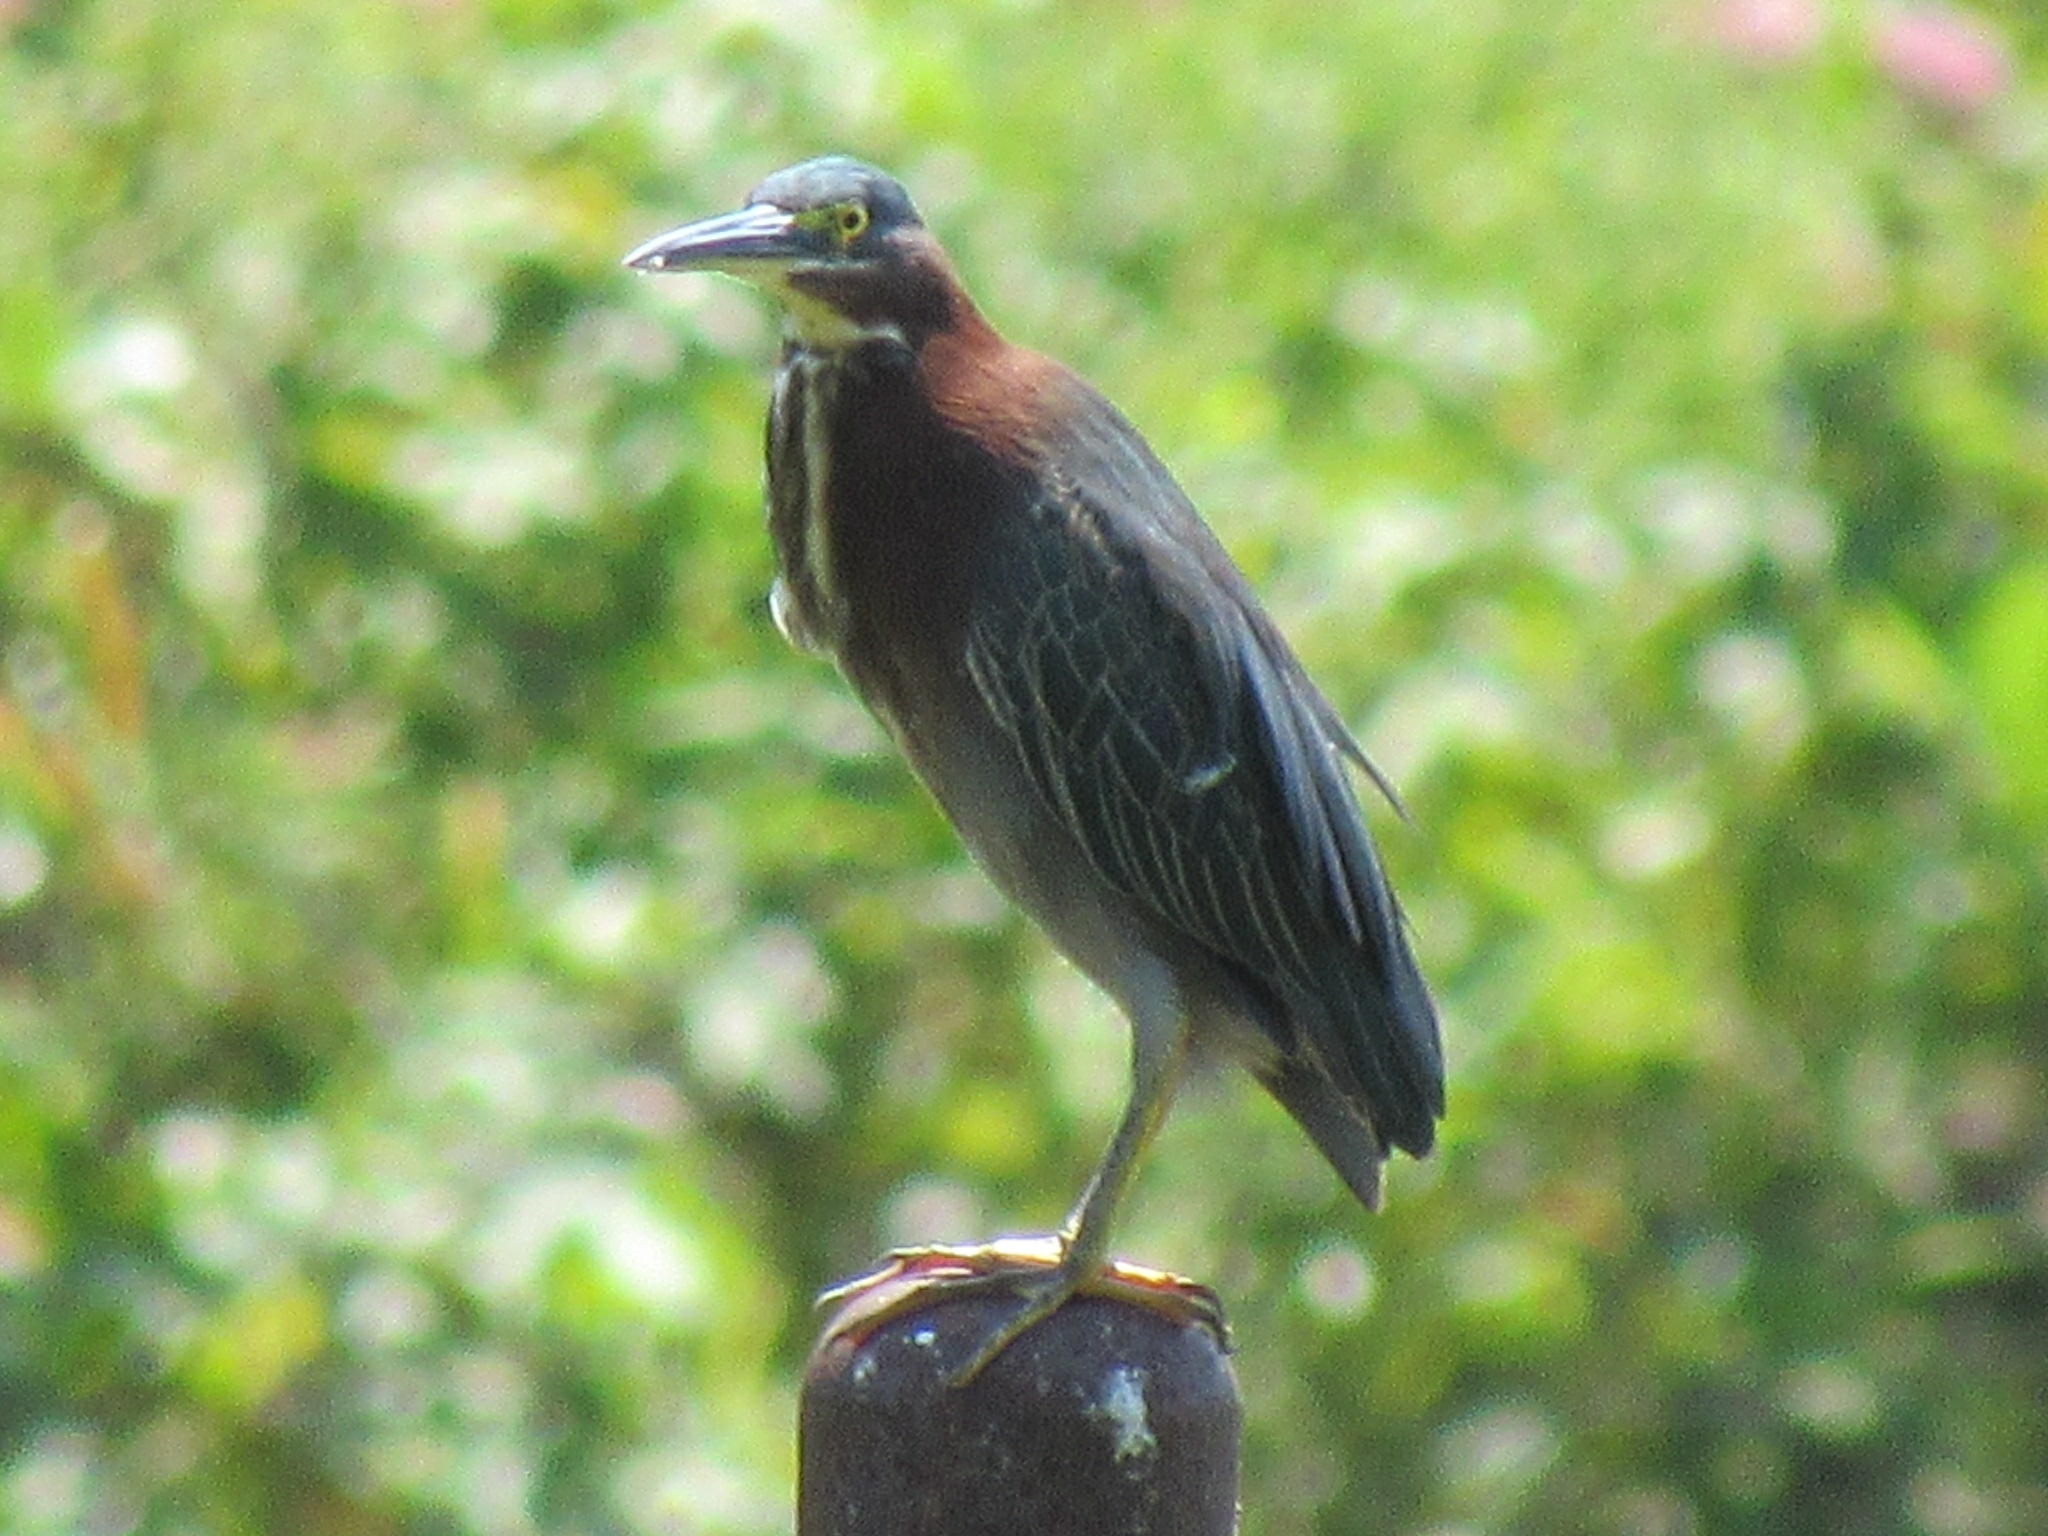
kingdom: Animalia
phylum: Chordata
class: Aves
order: Pelecaniformes
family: Ardeidae
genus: Butorides
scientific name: Butorides virescens
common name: Green heron
